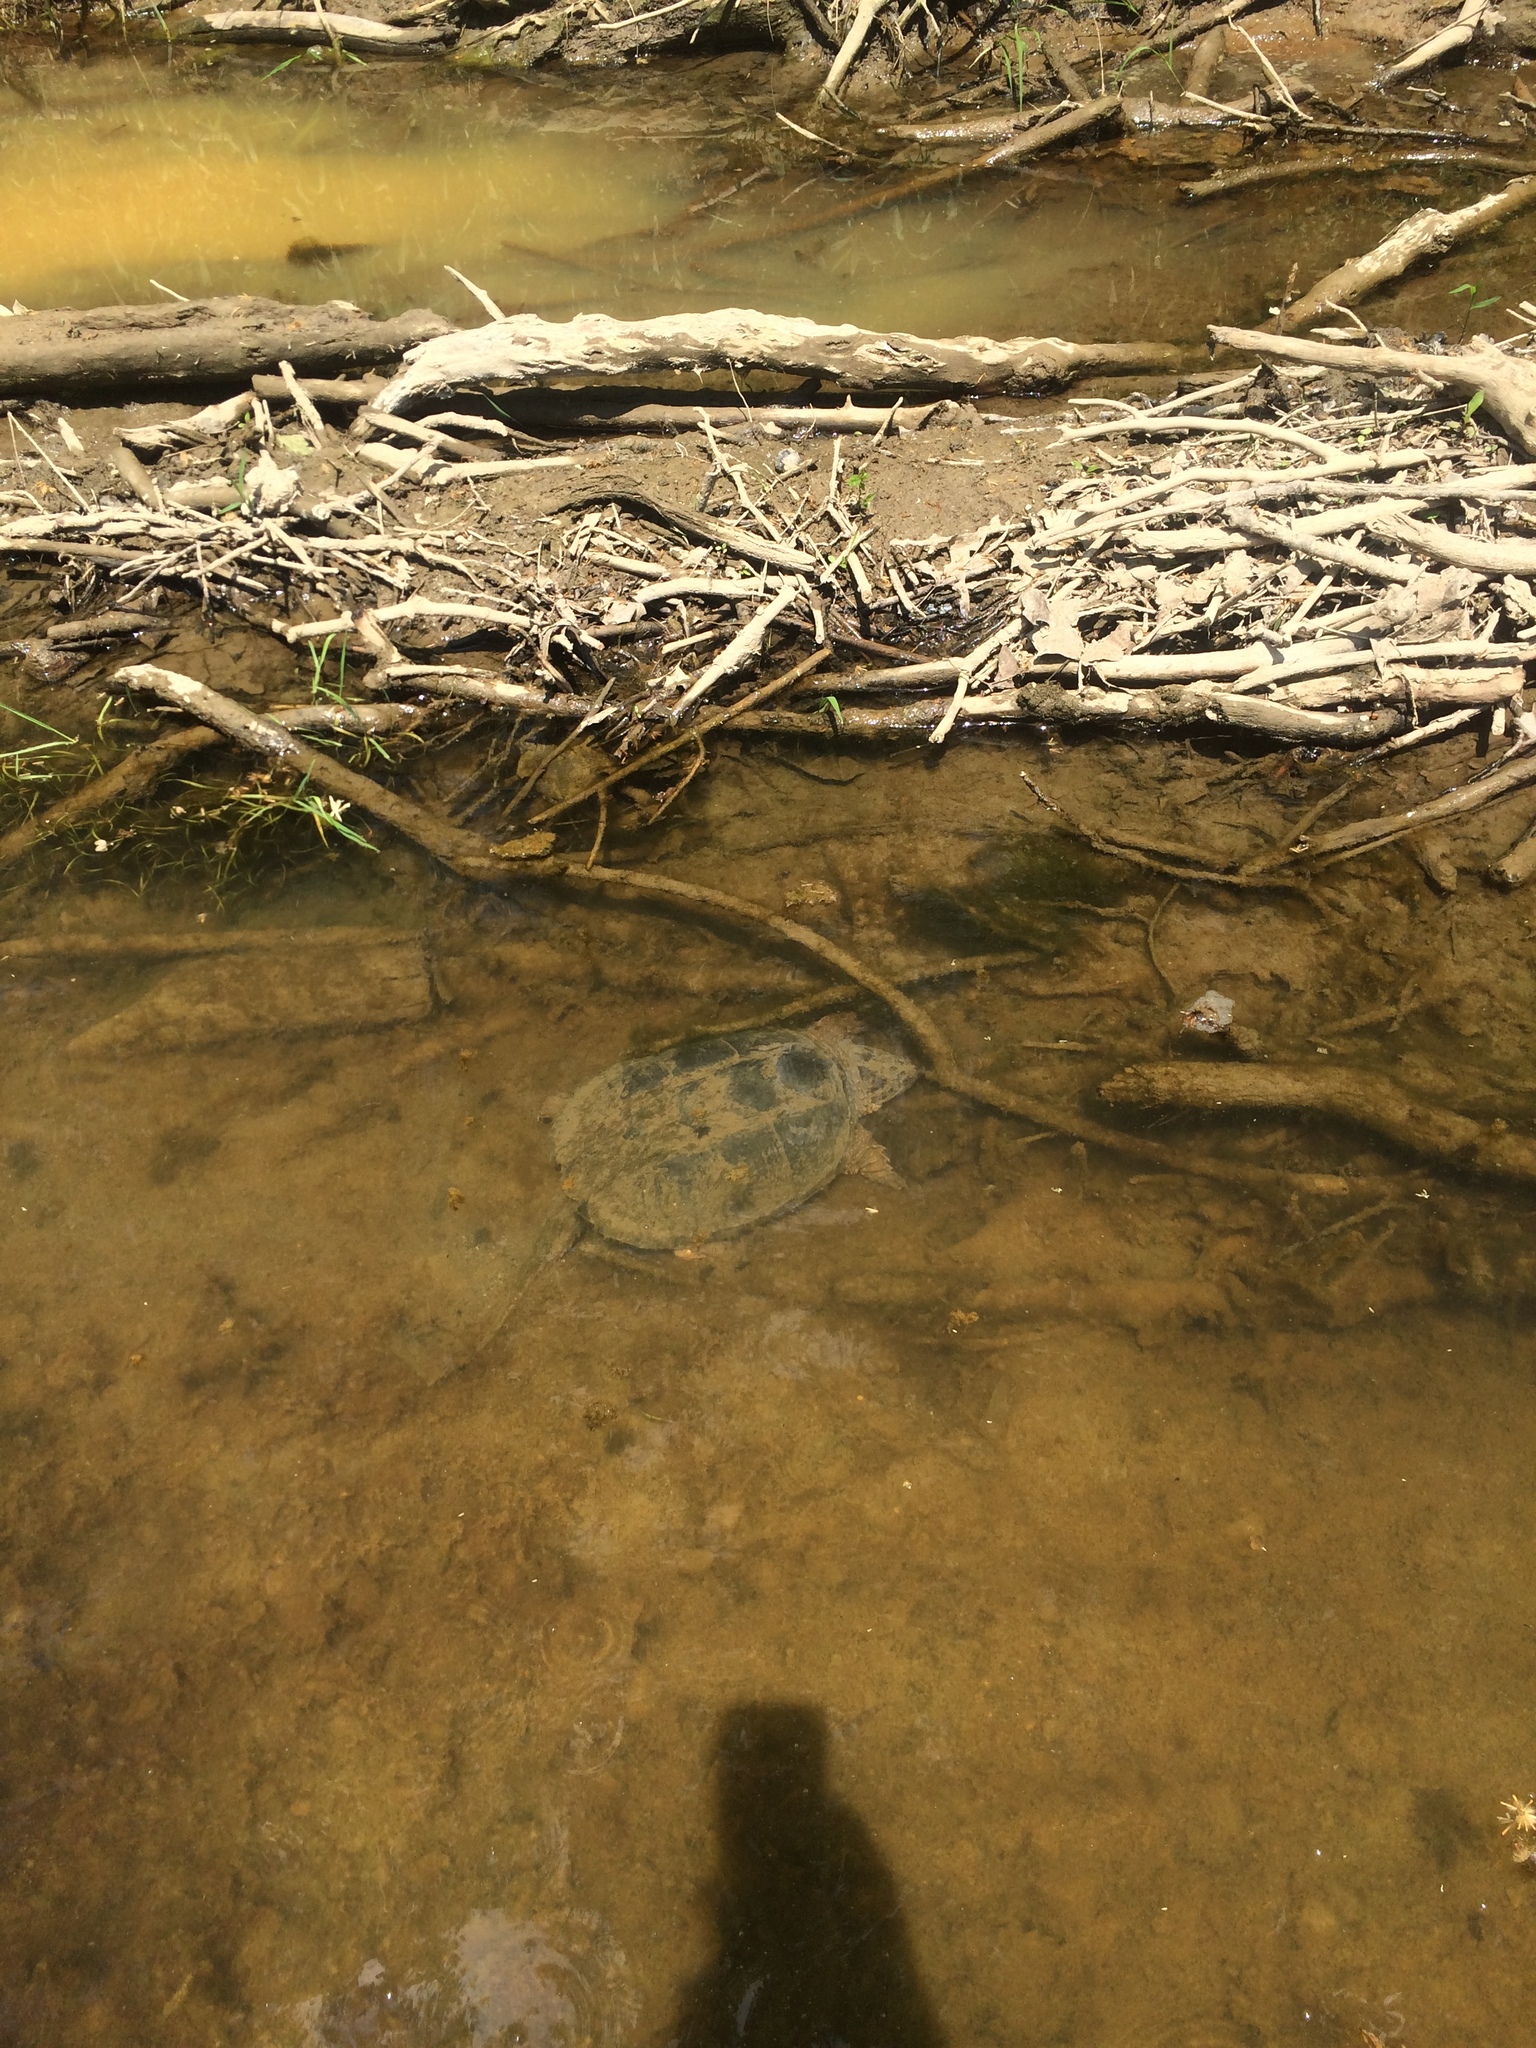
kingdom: Animalia
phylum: Chordata
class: Testudines
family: Chelydridae
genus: Chelydra
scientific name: Chelydra serpentina
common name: Common snapping turtle
